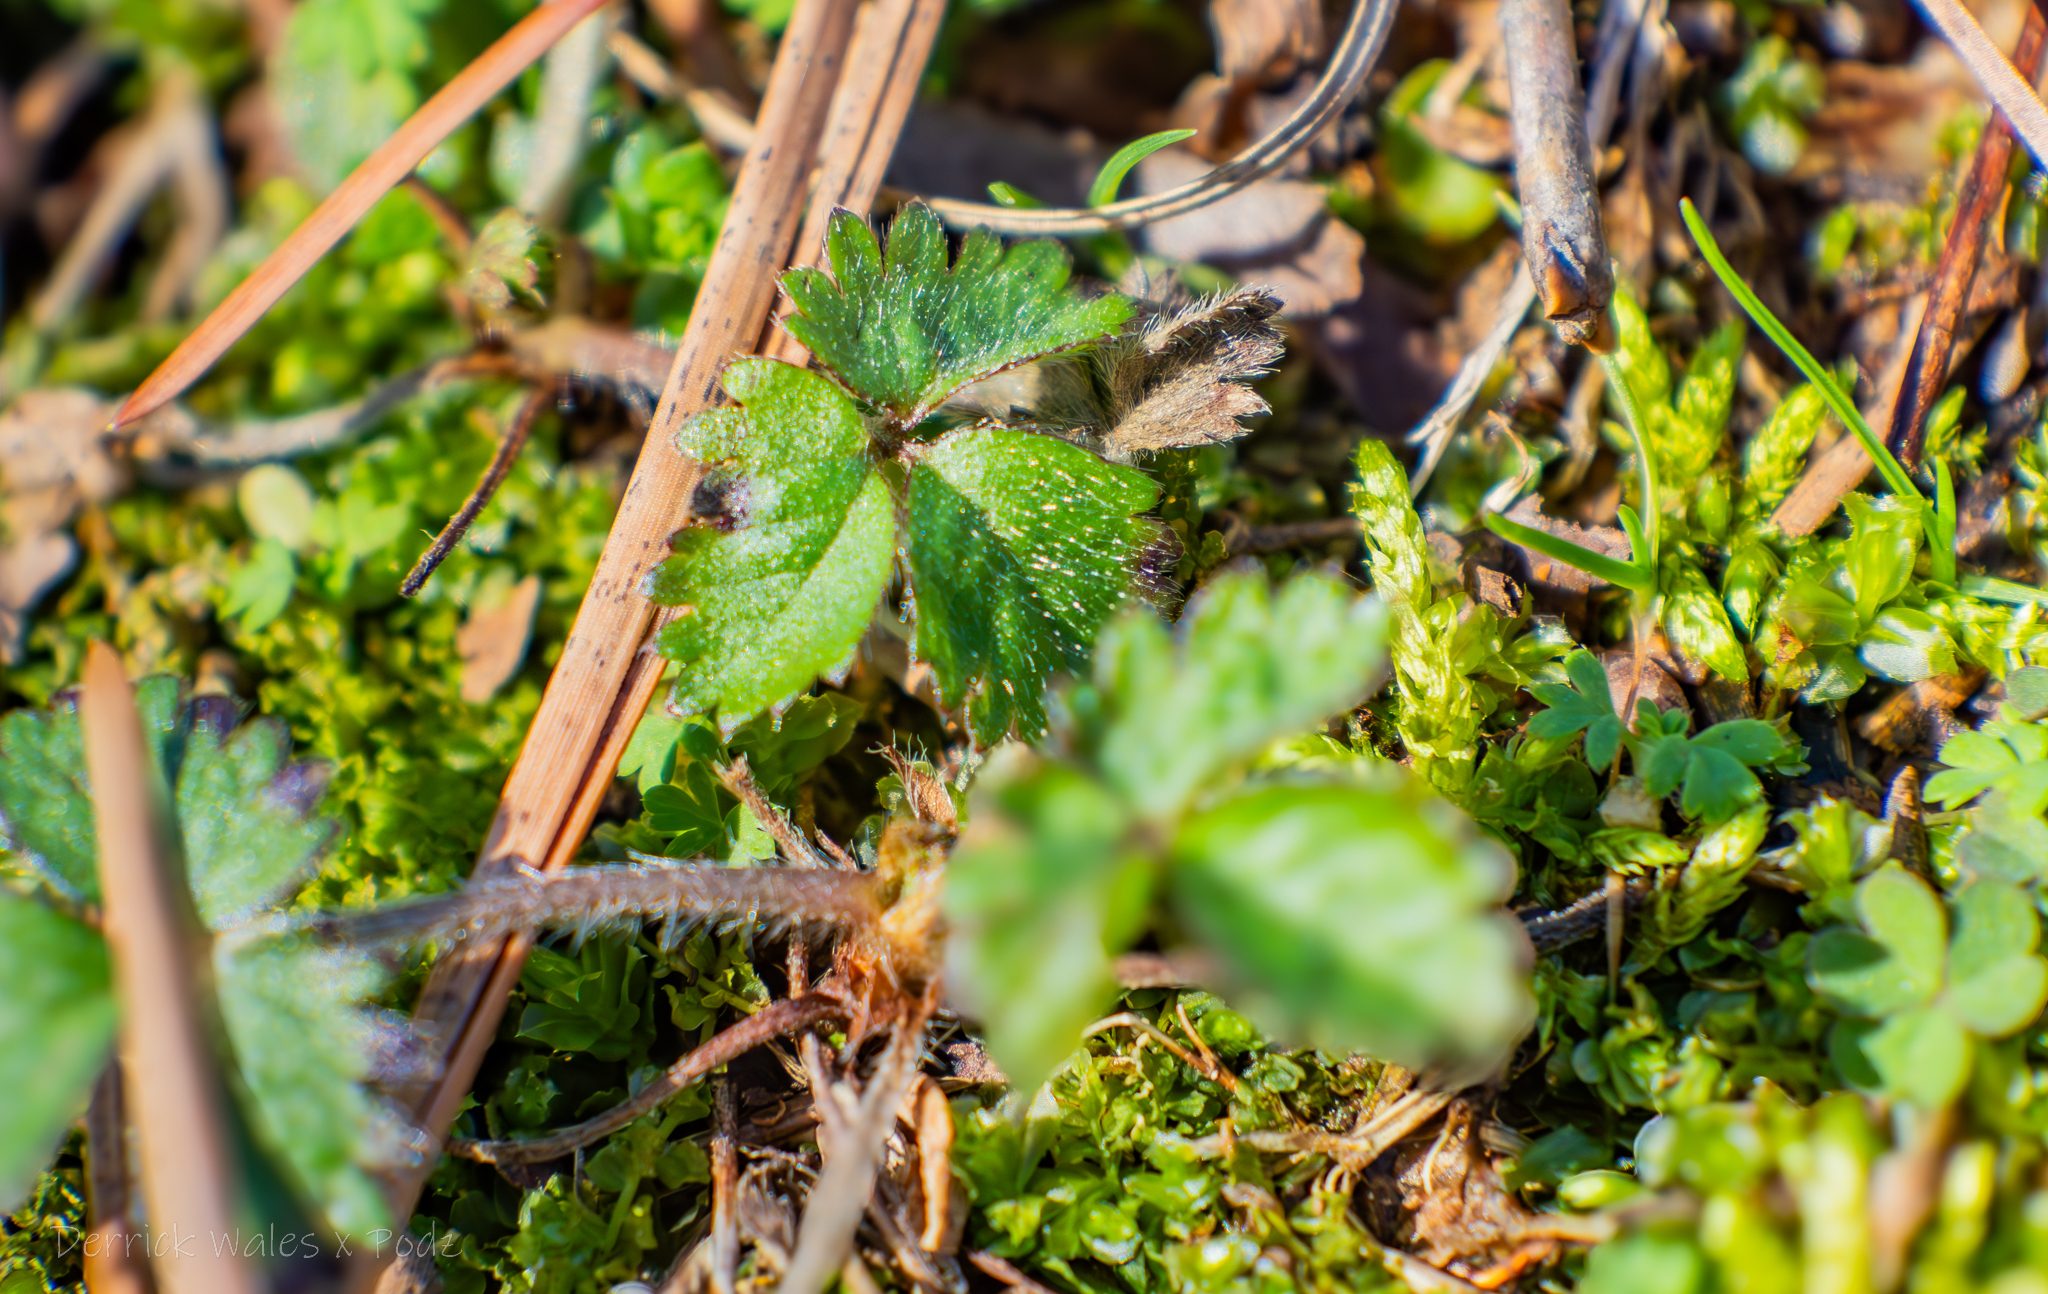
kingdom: Plantae
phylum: Tracheophyta
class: Magnoliopsida
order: Rosales
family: Rosaceae
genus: Potentilla
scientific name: Potentilla indica
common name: Yellow-flowered strawberry
